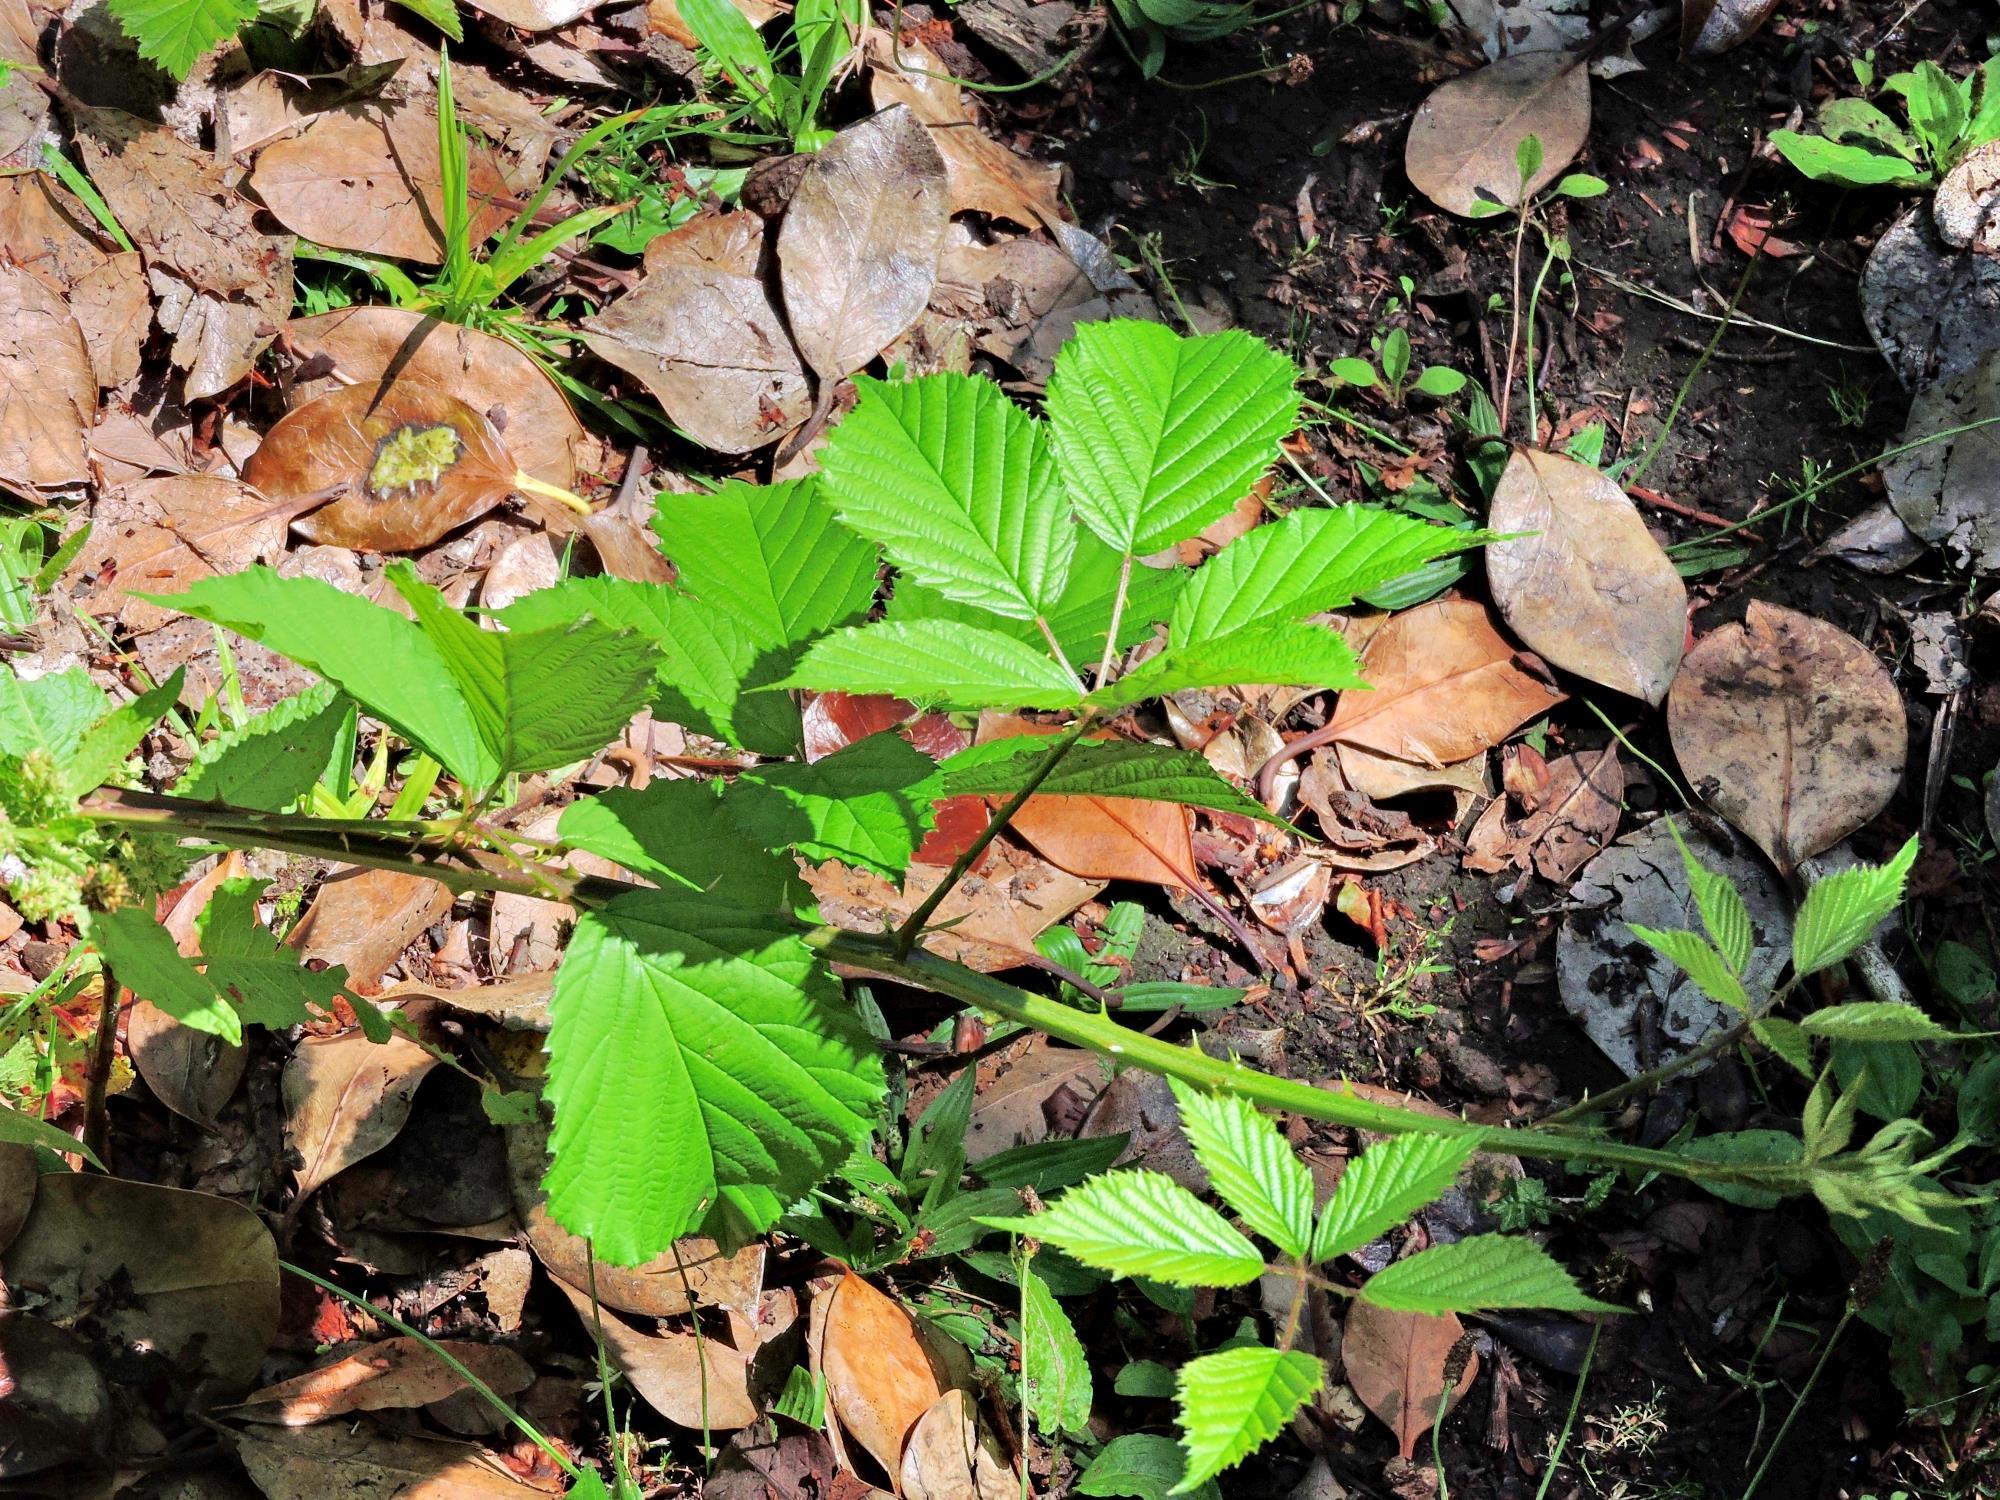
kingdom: Plantae
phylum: Tracheophyta
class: Magnoliopsida
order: Rosales
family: Rosaceae
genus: Rubus
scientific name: Rubus cissburiensis
